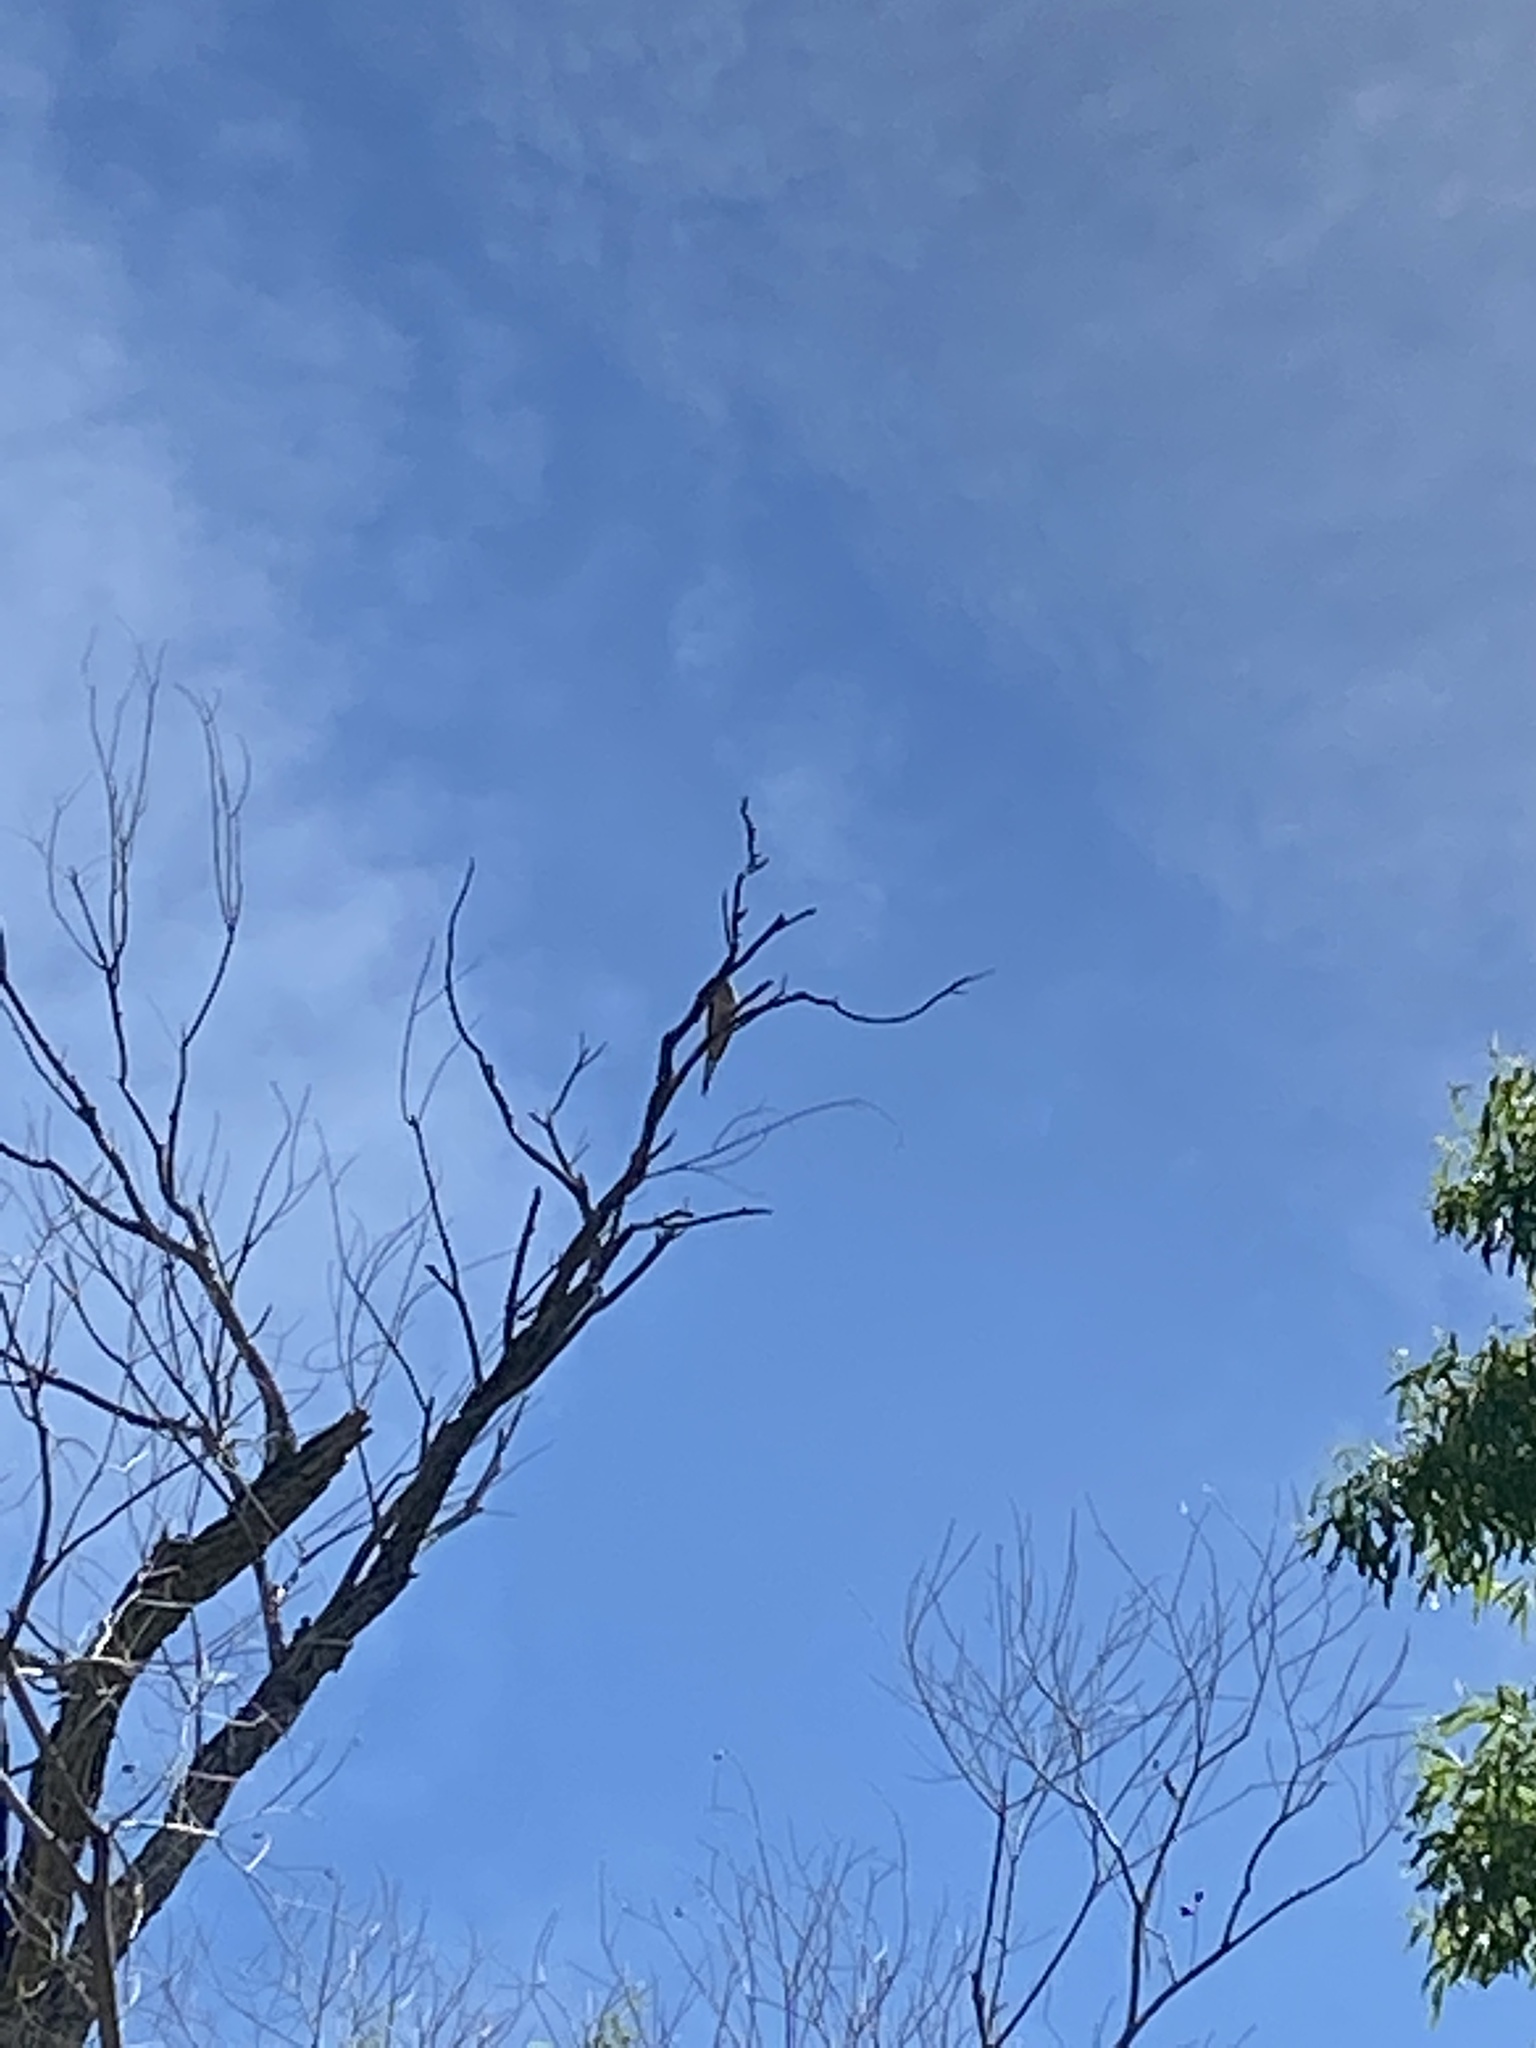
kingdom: Animalia
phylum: Chordata
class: Aves
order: Columbiformes
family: Columbidae
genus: Zenaida
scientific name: Zenaida macroura
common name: Mourning dove
